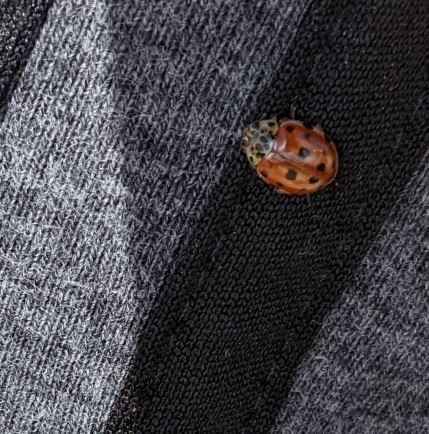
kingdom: Animalia
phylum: Arthropoda
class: Insecta
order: Coleoptera
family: Coccinellidae
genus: Harmonia
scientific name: Harmonia quadripunctata
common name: Cream-streaked ladybird
